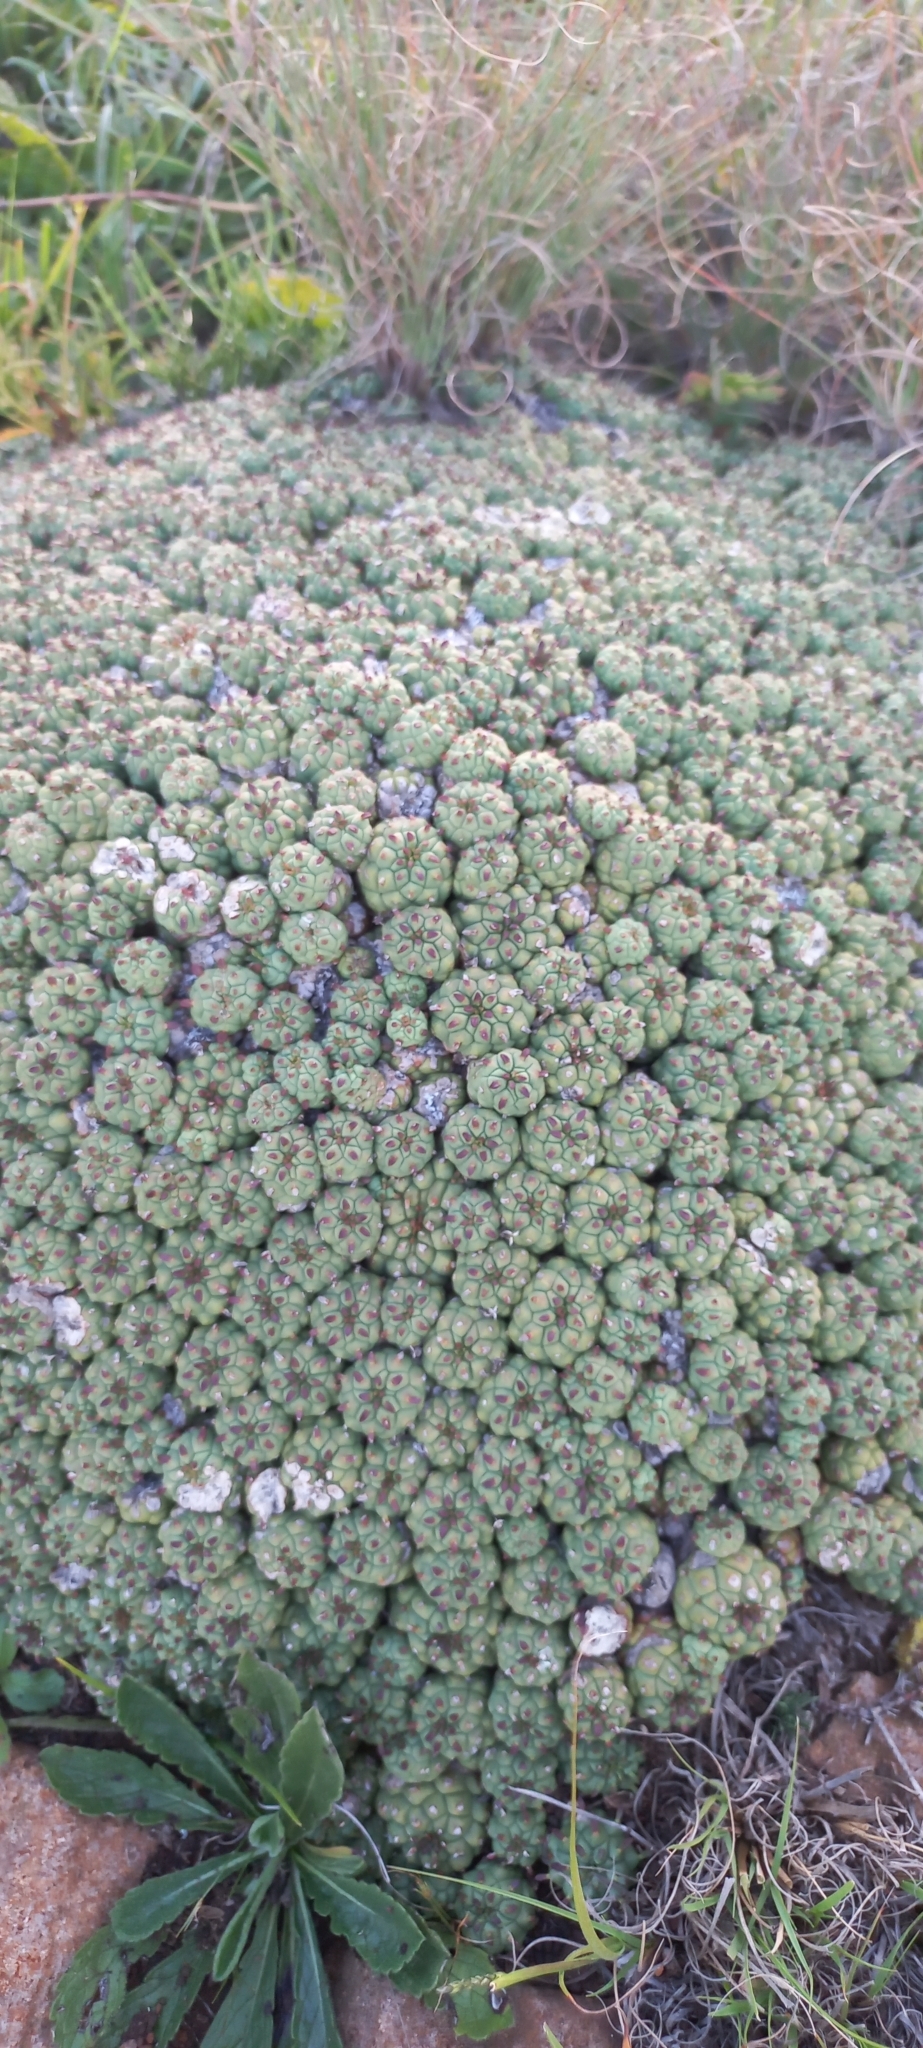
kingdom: Plantae
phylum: Tracheophyta
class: Magnoliopsida
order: Malpighiales
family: Euphorbiaceae
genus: Euphorbia
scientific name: Euphorbia clavarioides
